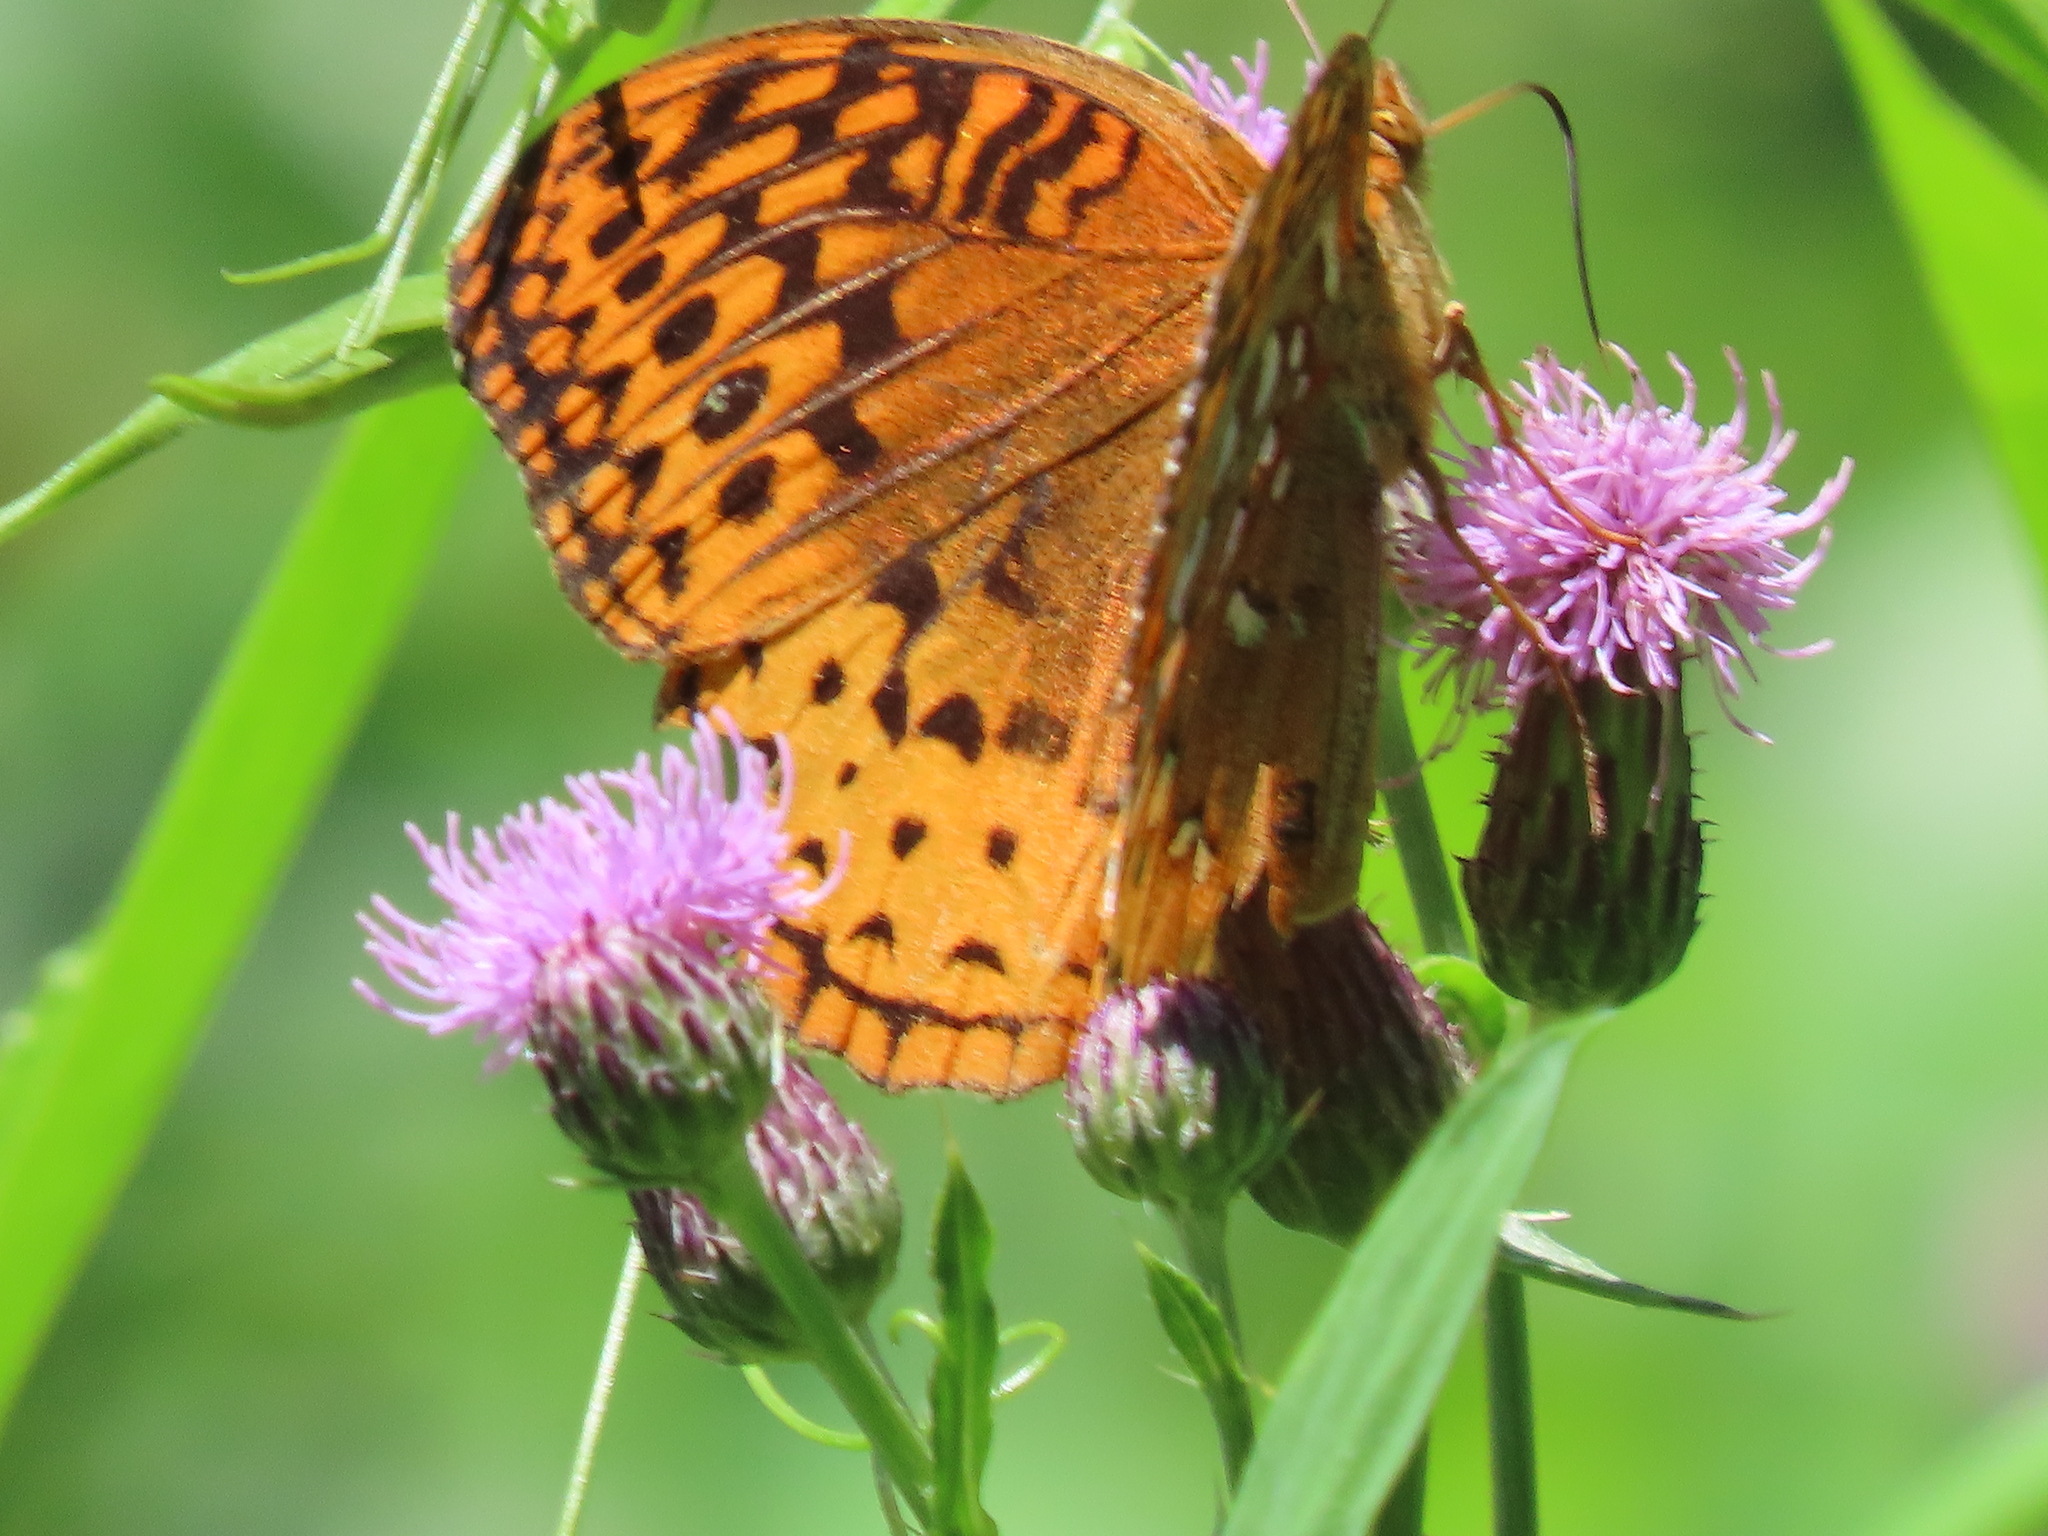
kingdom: Animalia
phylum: Arthropoda
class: Insecta
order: Lepidoptera
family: Nymphalidae
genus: Speyeria
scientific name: Speyeria cybele
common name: Great spangled fritillary
